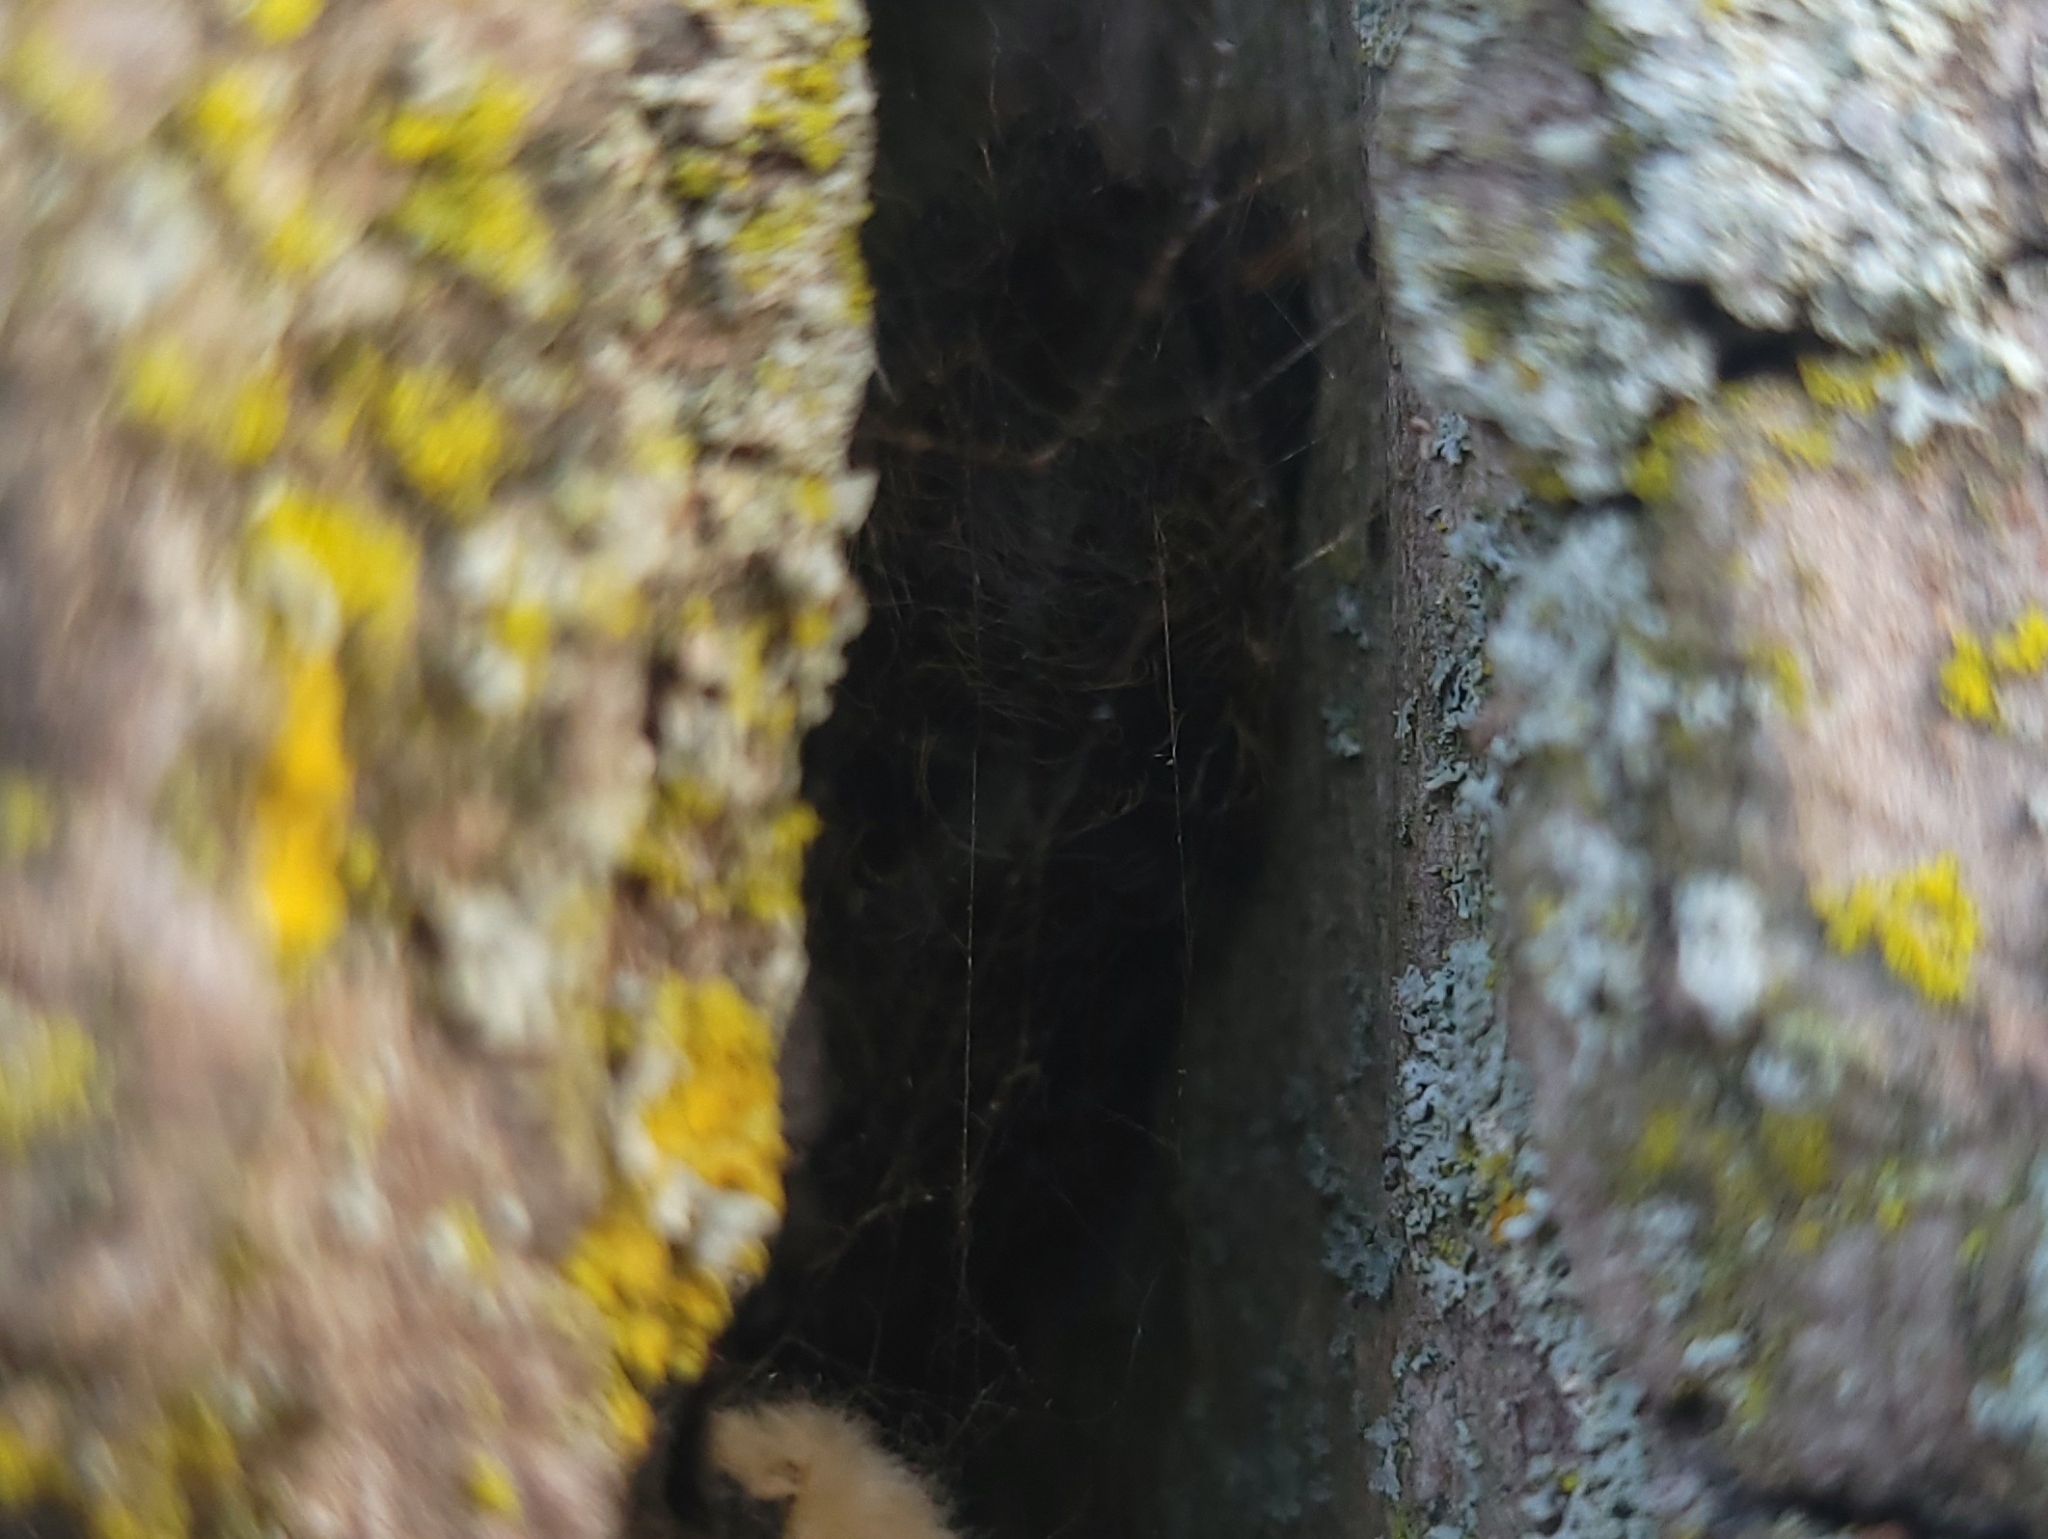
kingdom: Animalia
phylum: Arthropoda
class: Insecta
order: Lepidoptera
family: Erebidae
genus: Lymantria
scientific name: Lymantria dispar
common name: Gypsy moth
